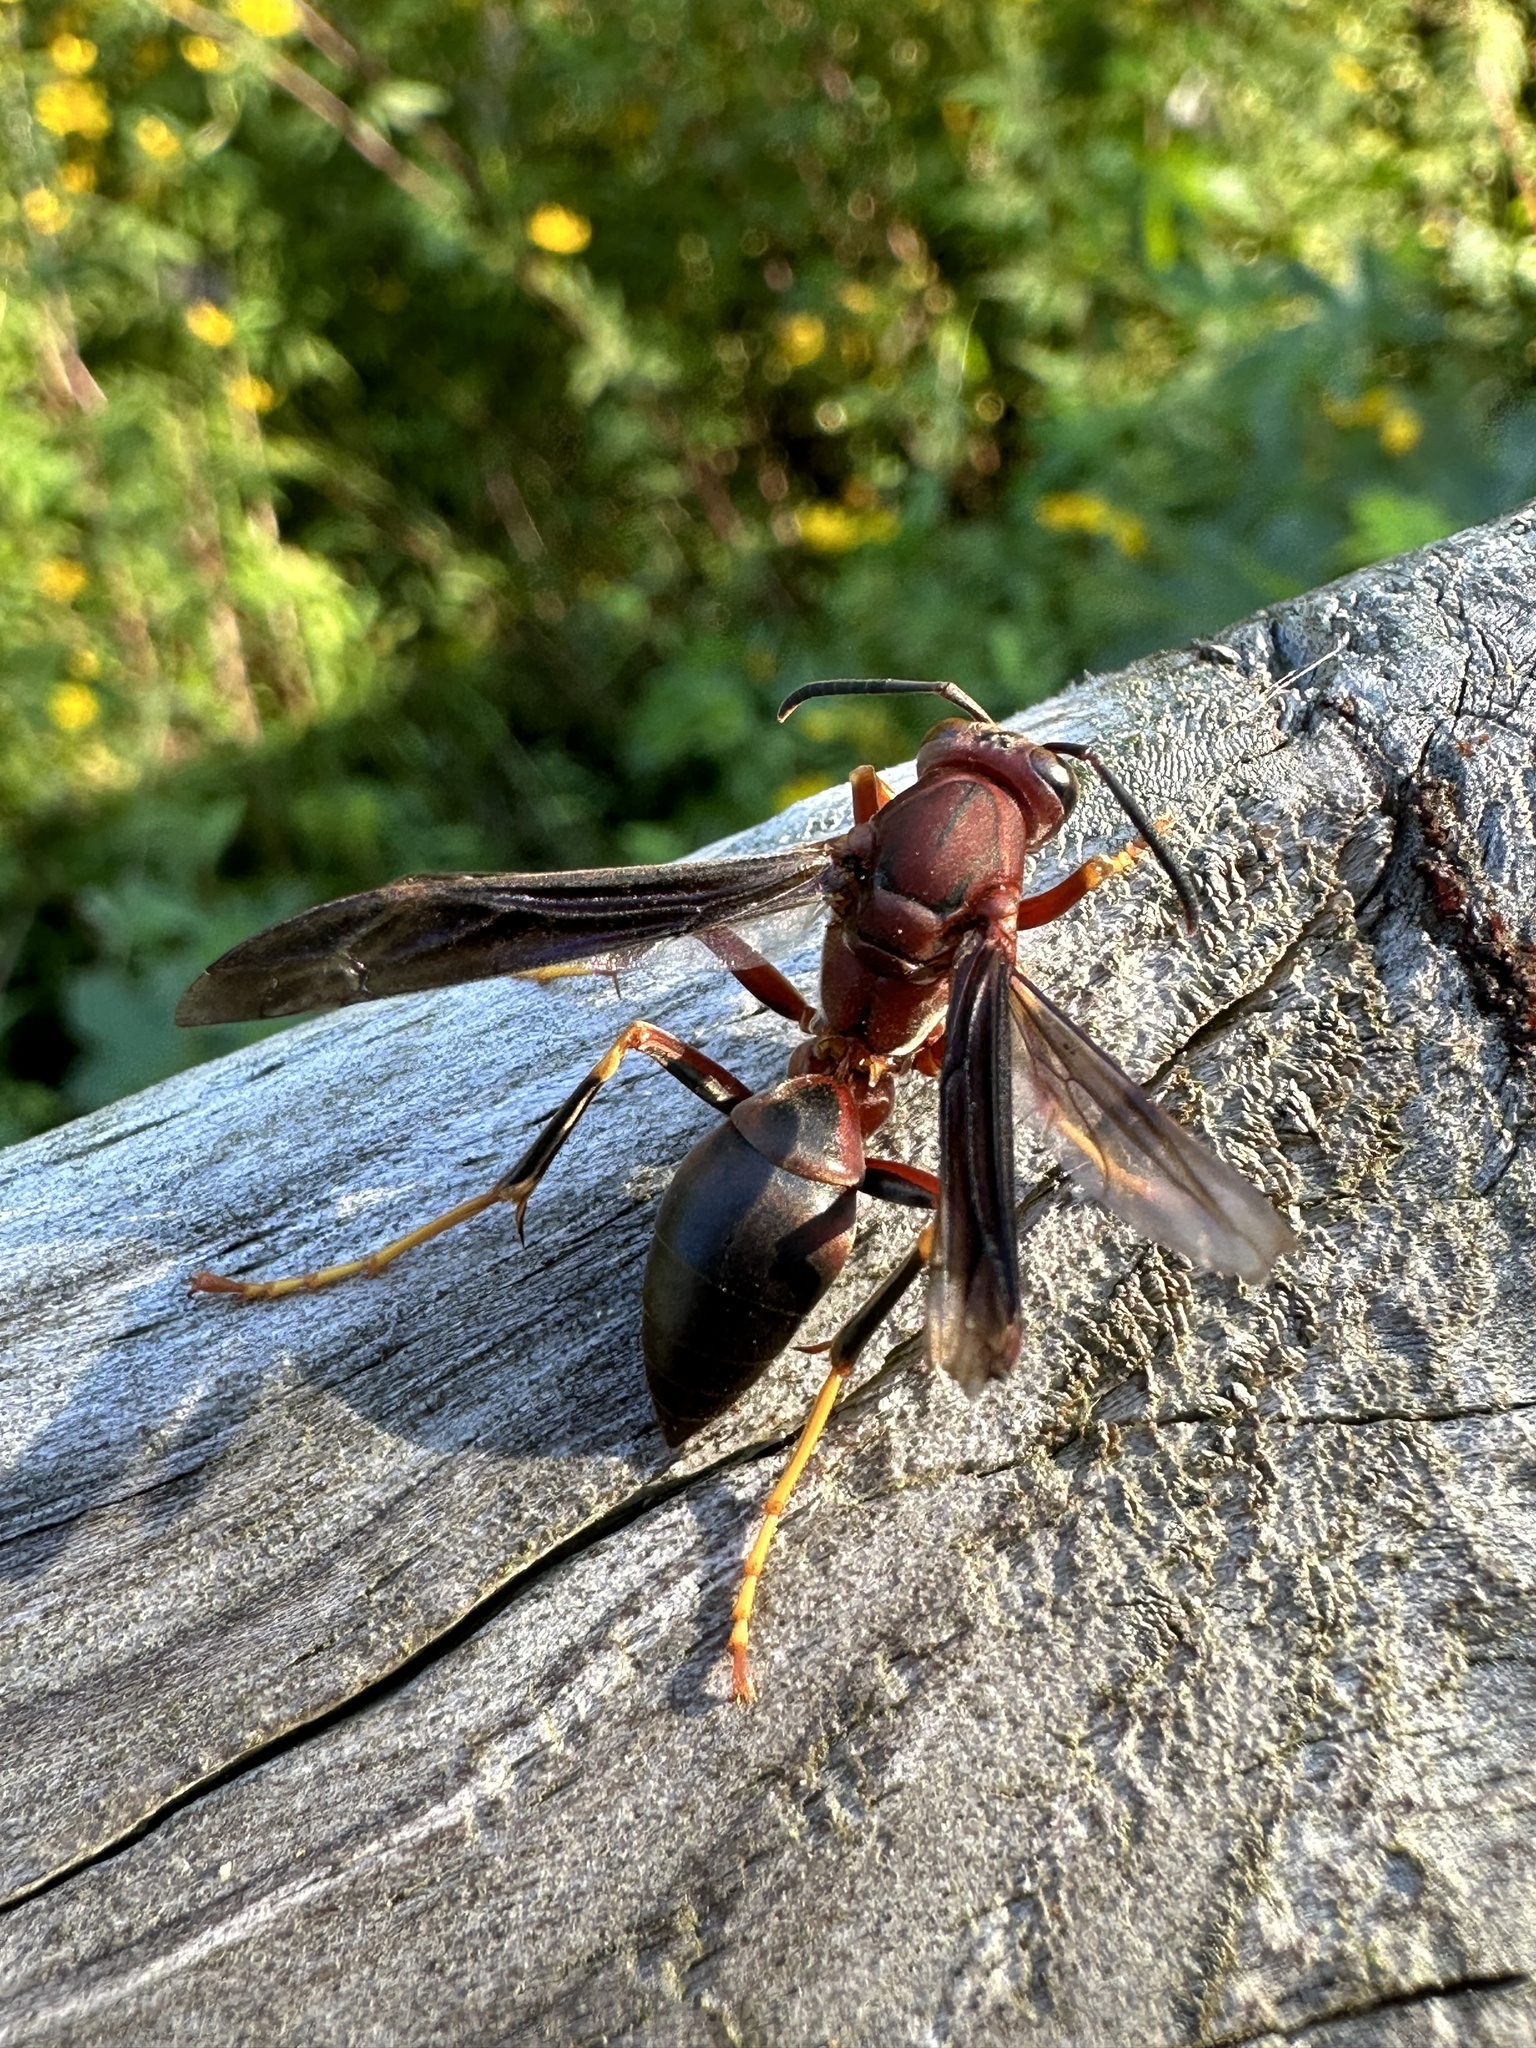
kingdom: Animalia
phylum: Arthropoda
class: Insecta
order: Hymenoptera
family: Eumenidae
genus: Polistes
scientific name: Polistes metricus
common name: Metric paper wasp
